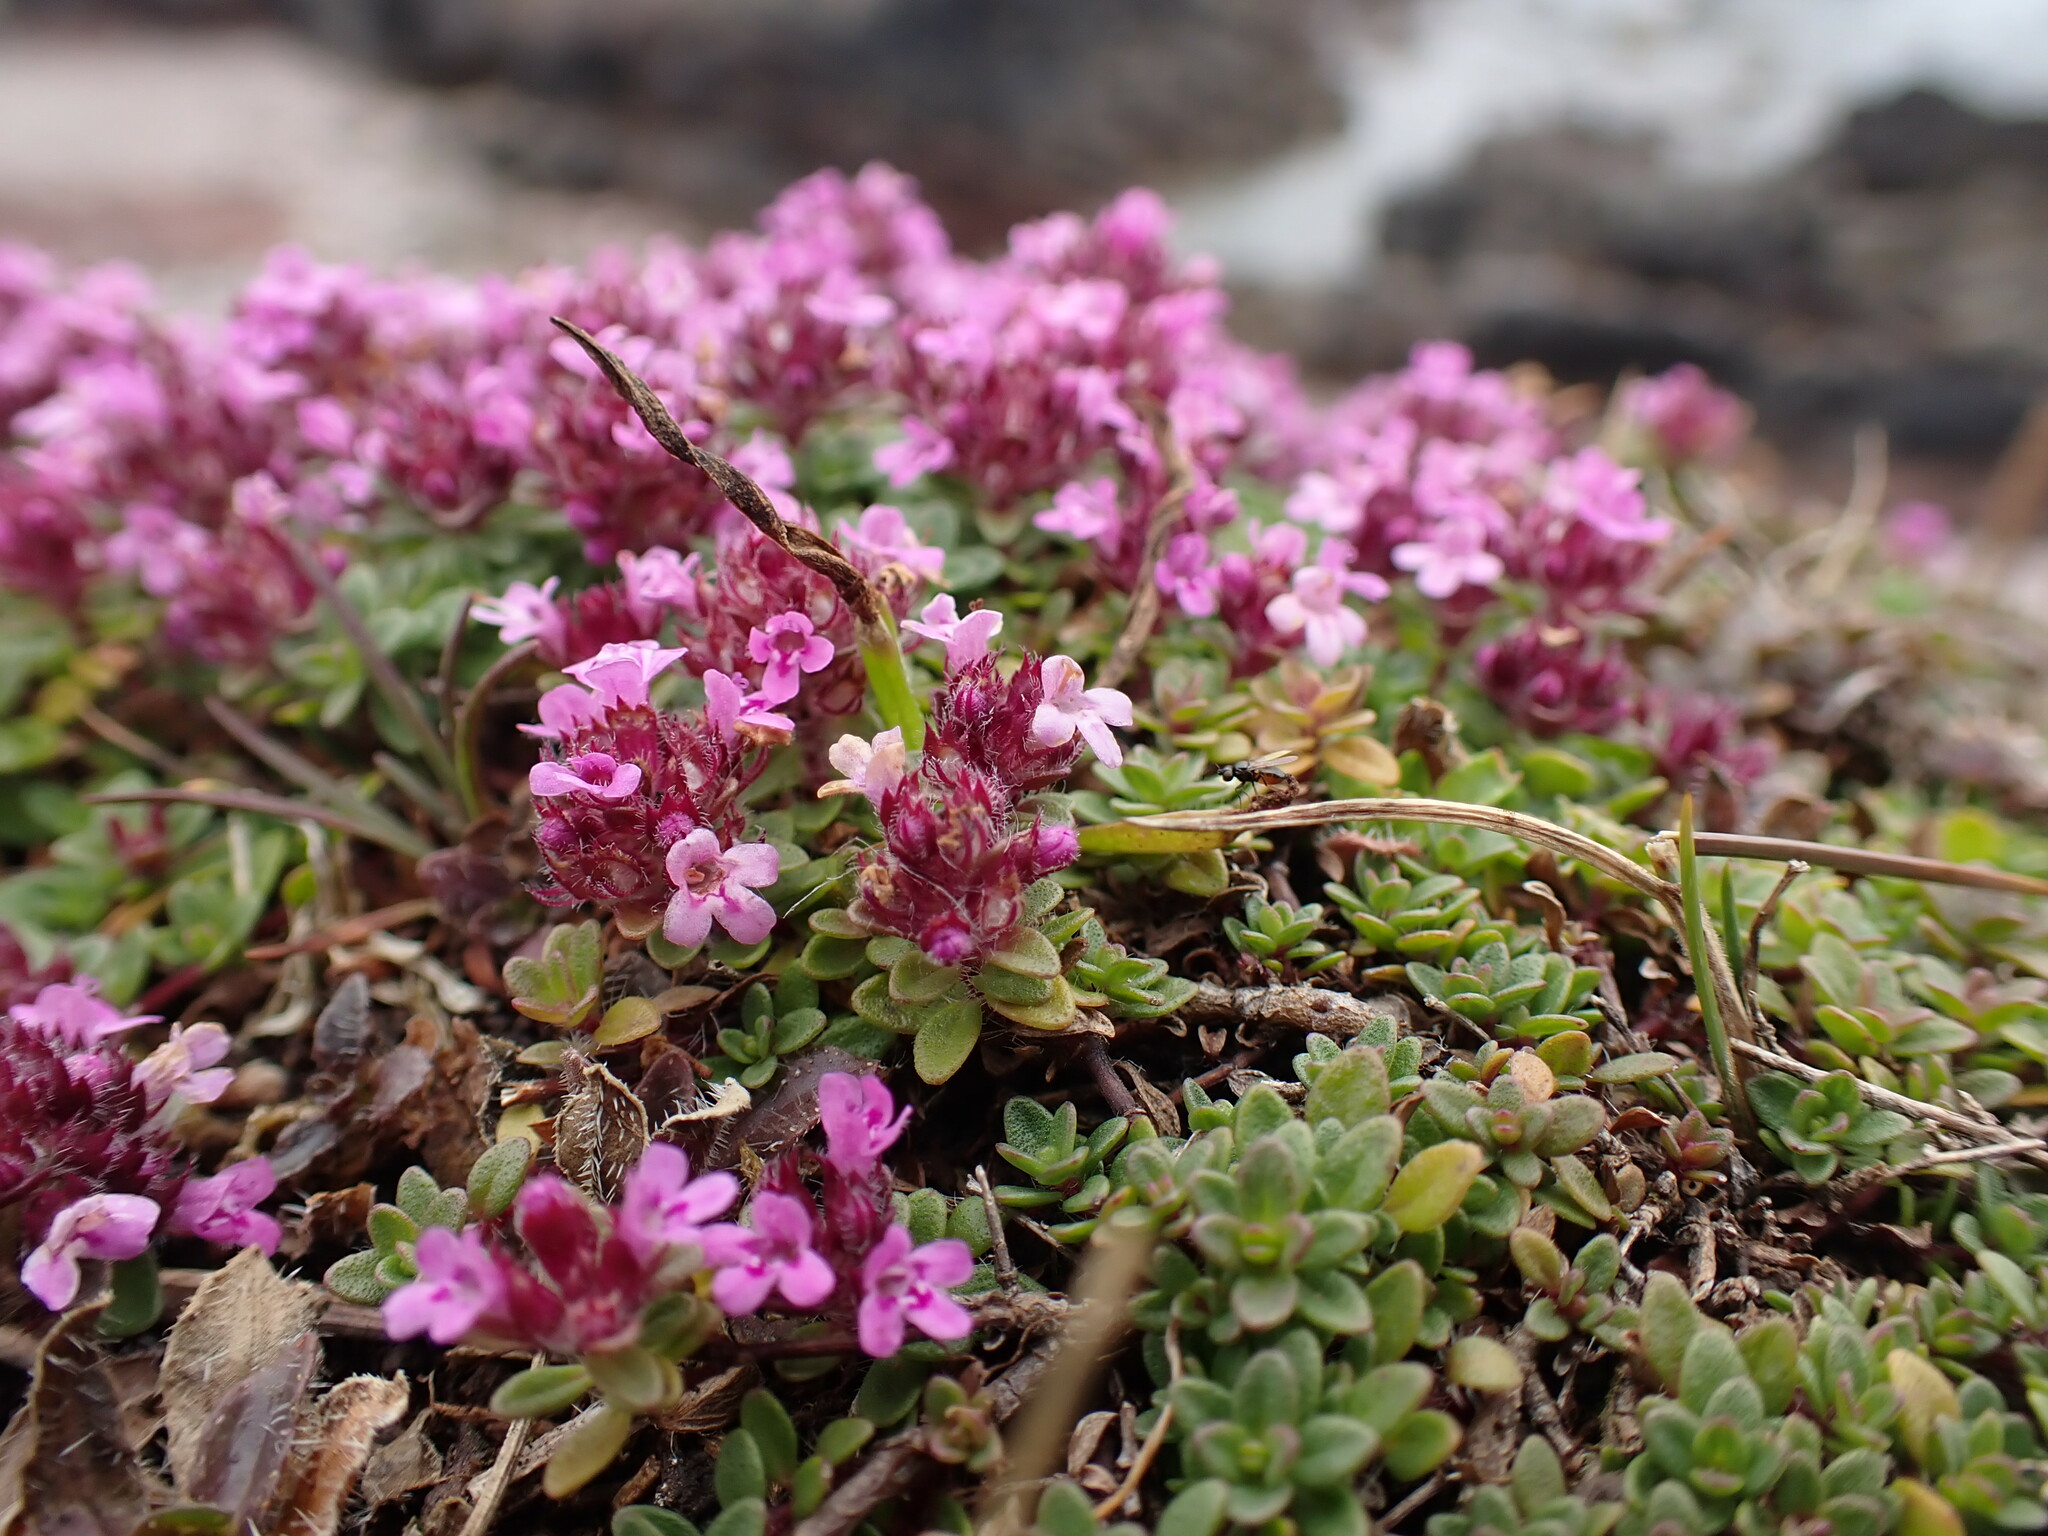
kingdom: Plantae
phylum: Tracheophyta
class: Magnoliopsida
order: Lamiales
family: Lamiaceae
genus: Thymus
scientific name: Thymus praecox
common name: Wild thyme
